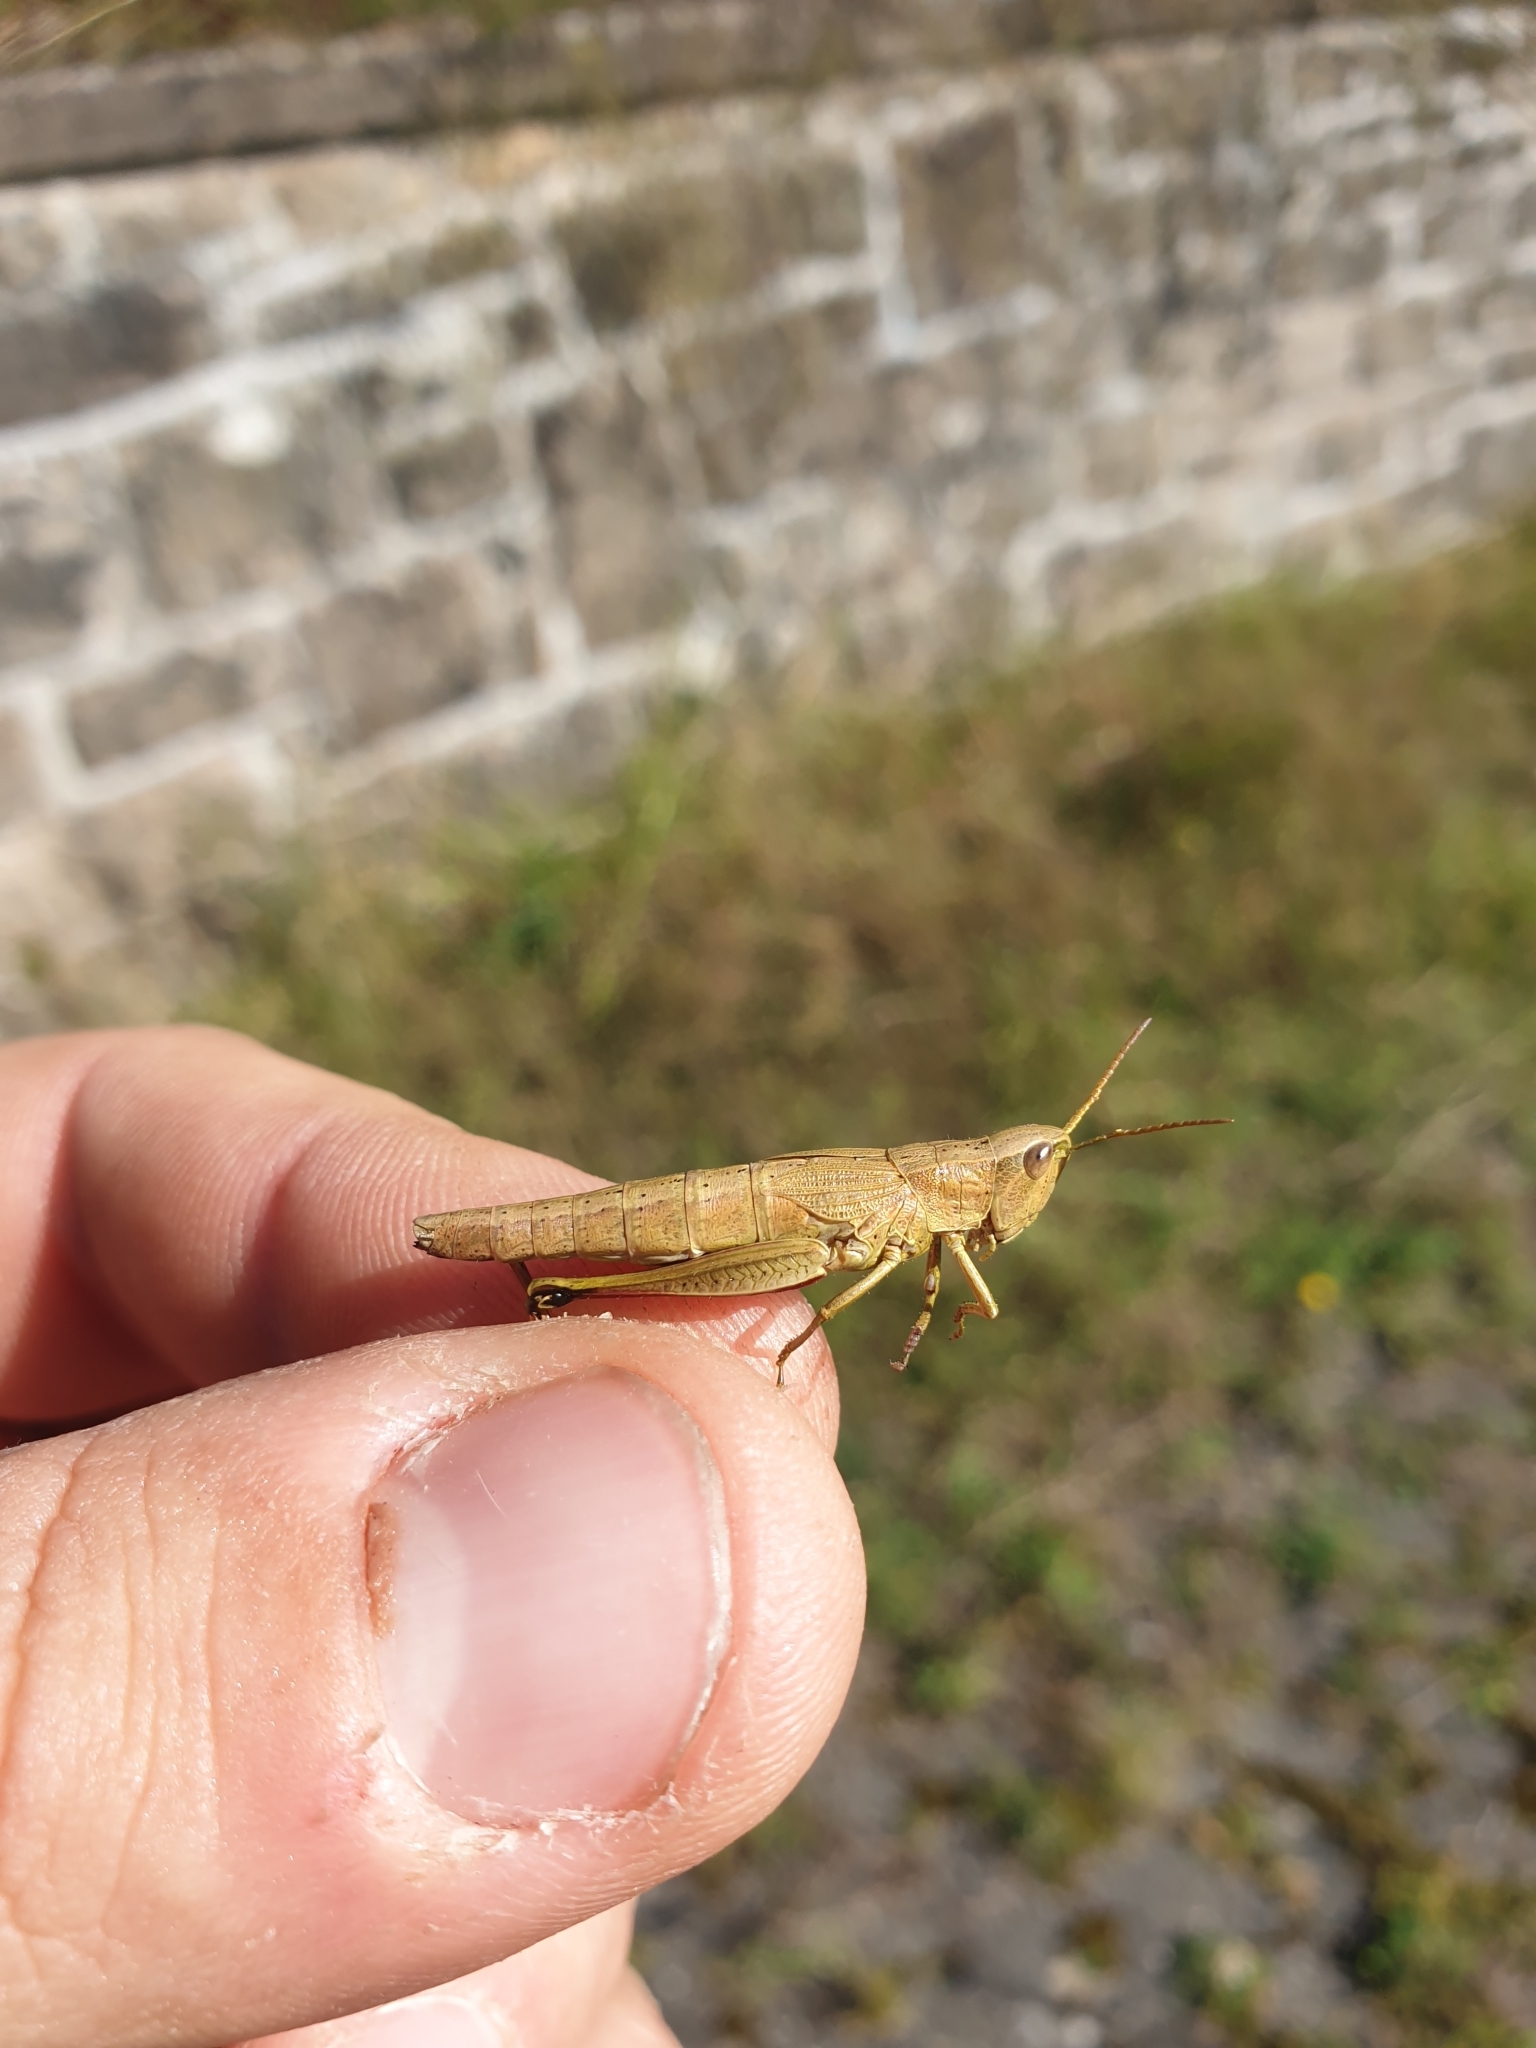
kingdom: Animalia
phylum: Arthropoda
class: Insecta
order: Orthoptera
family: Acrididae
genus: Chrysochraon
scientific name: Chrysochraon dispar
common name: Large gold grasshopper
